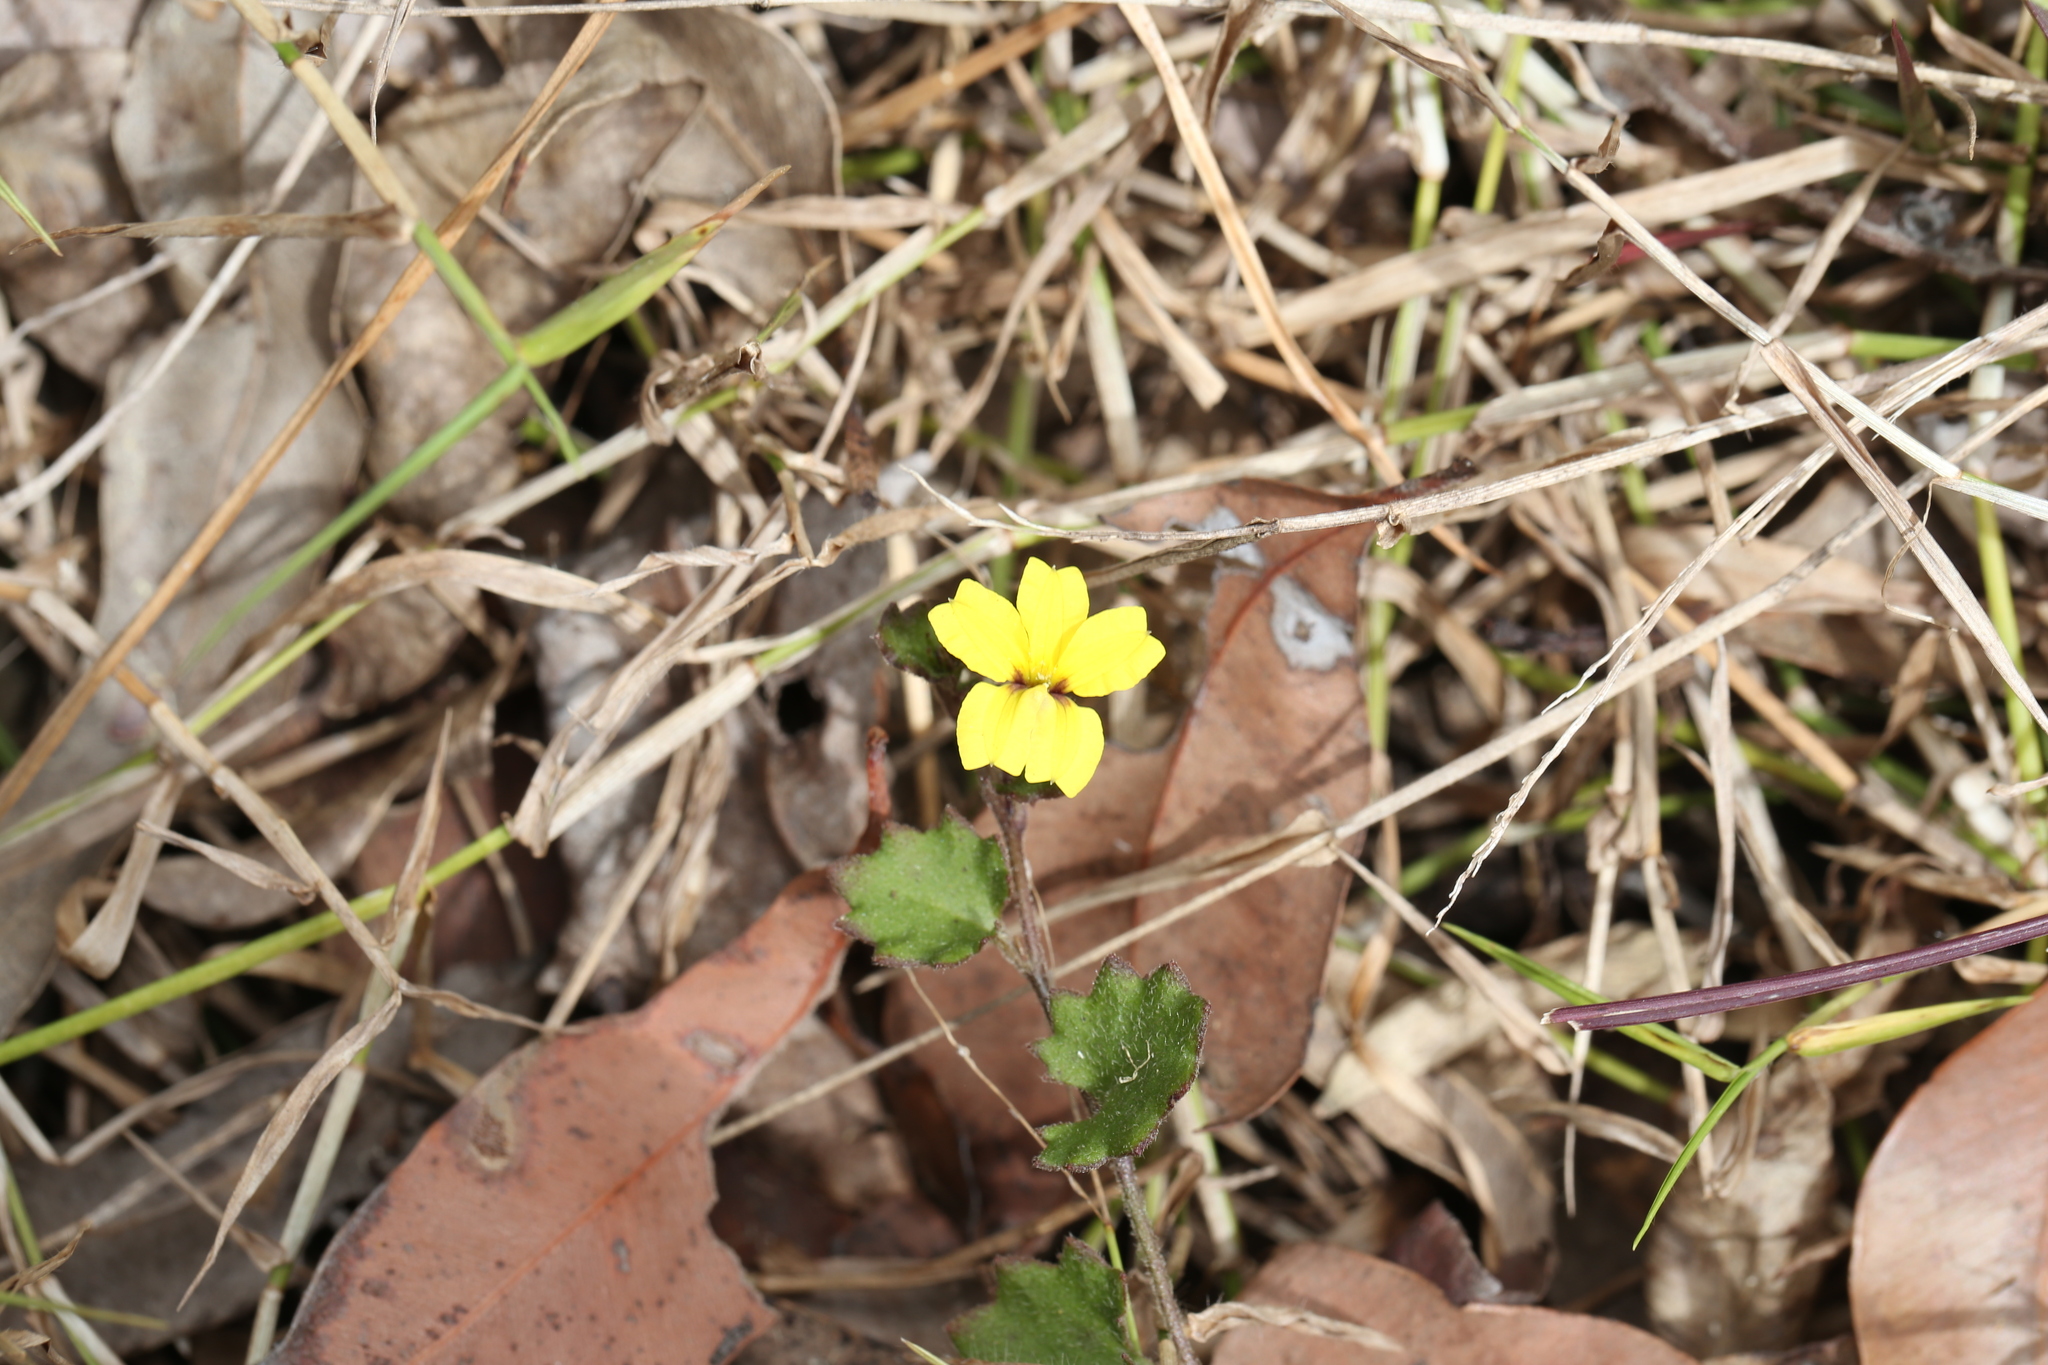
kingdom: Plantae
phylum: Tracheophyta
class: Magnoliopsida
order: Asterales
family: Goodeniaceae
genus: Goodenia
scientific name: Goodenia rotundifolia
